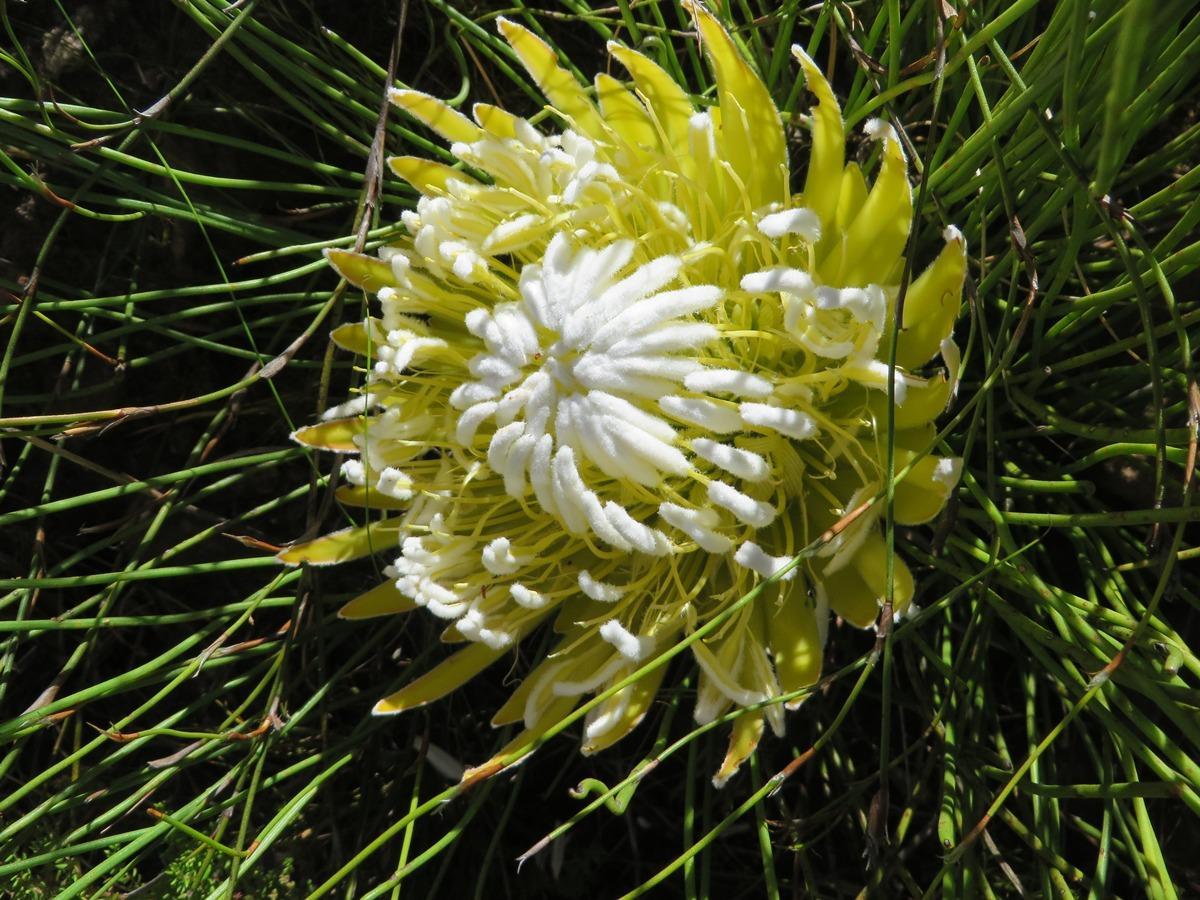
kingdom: Plantae
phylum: Tracheophyta
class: Magnoliopsida
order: Proteales
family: Proteaceae
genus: Protea
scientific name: Protea lorea
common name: Thong-leaf sugarbush
